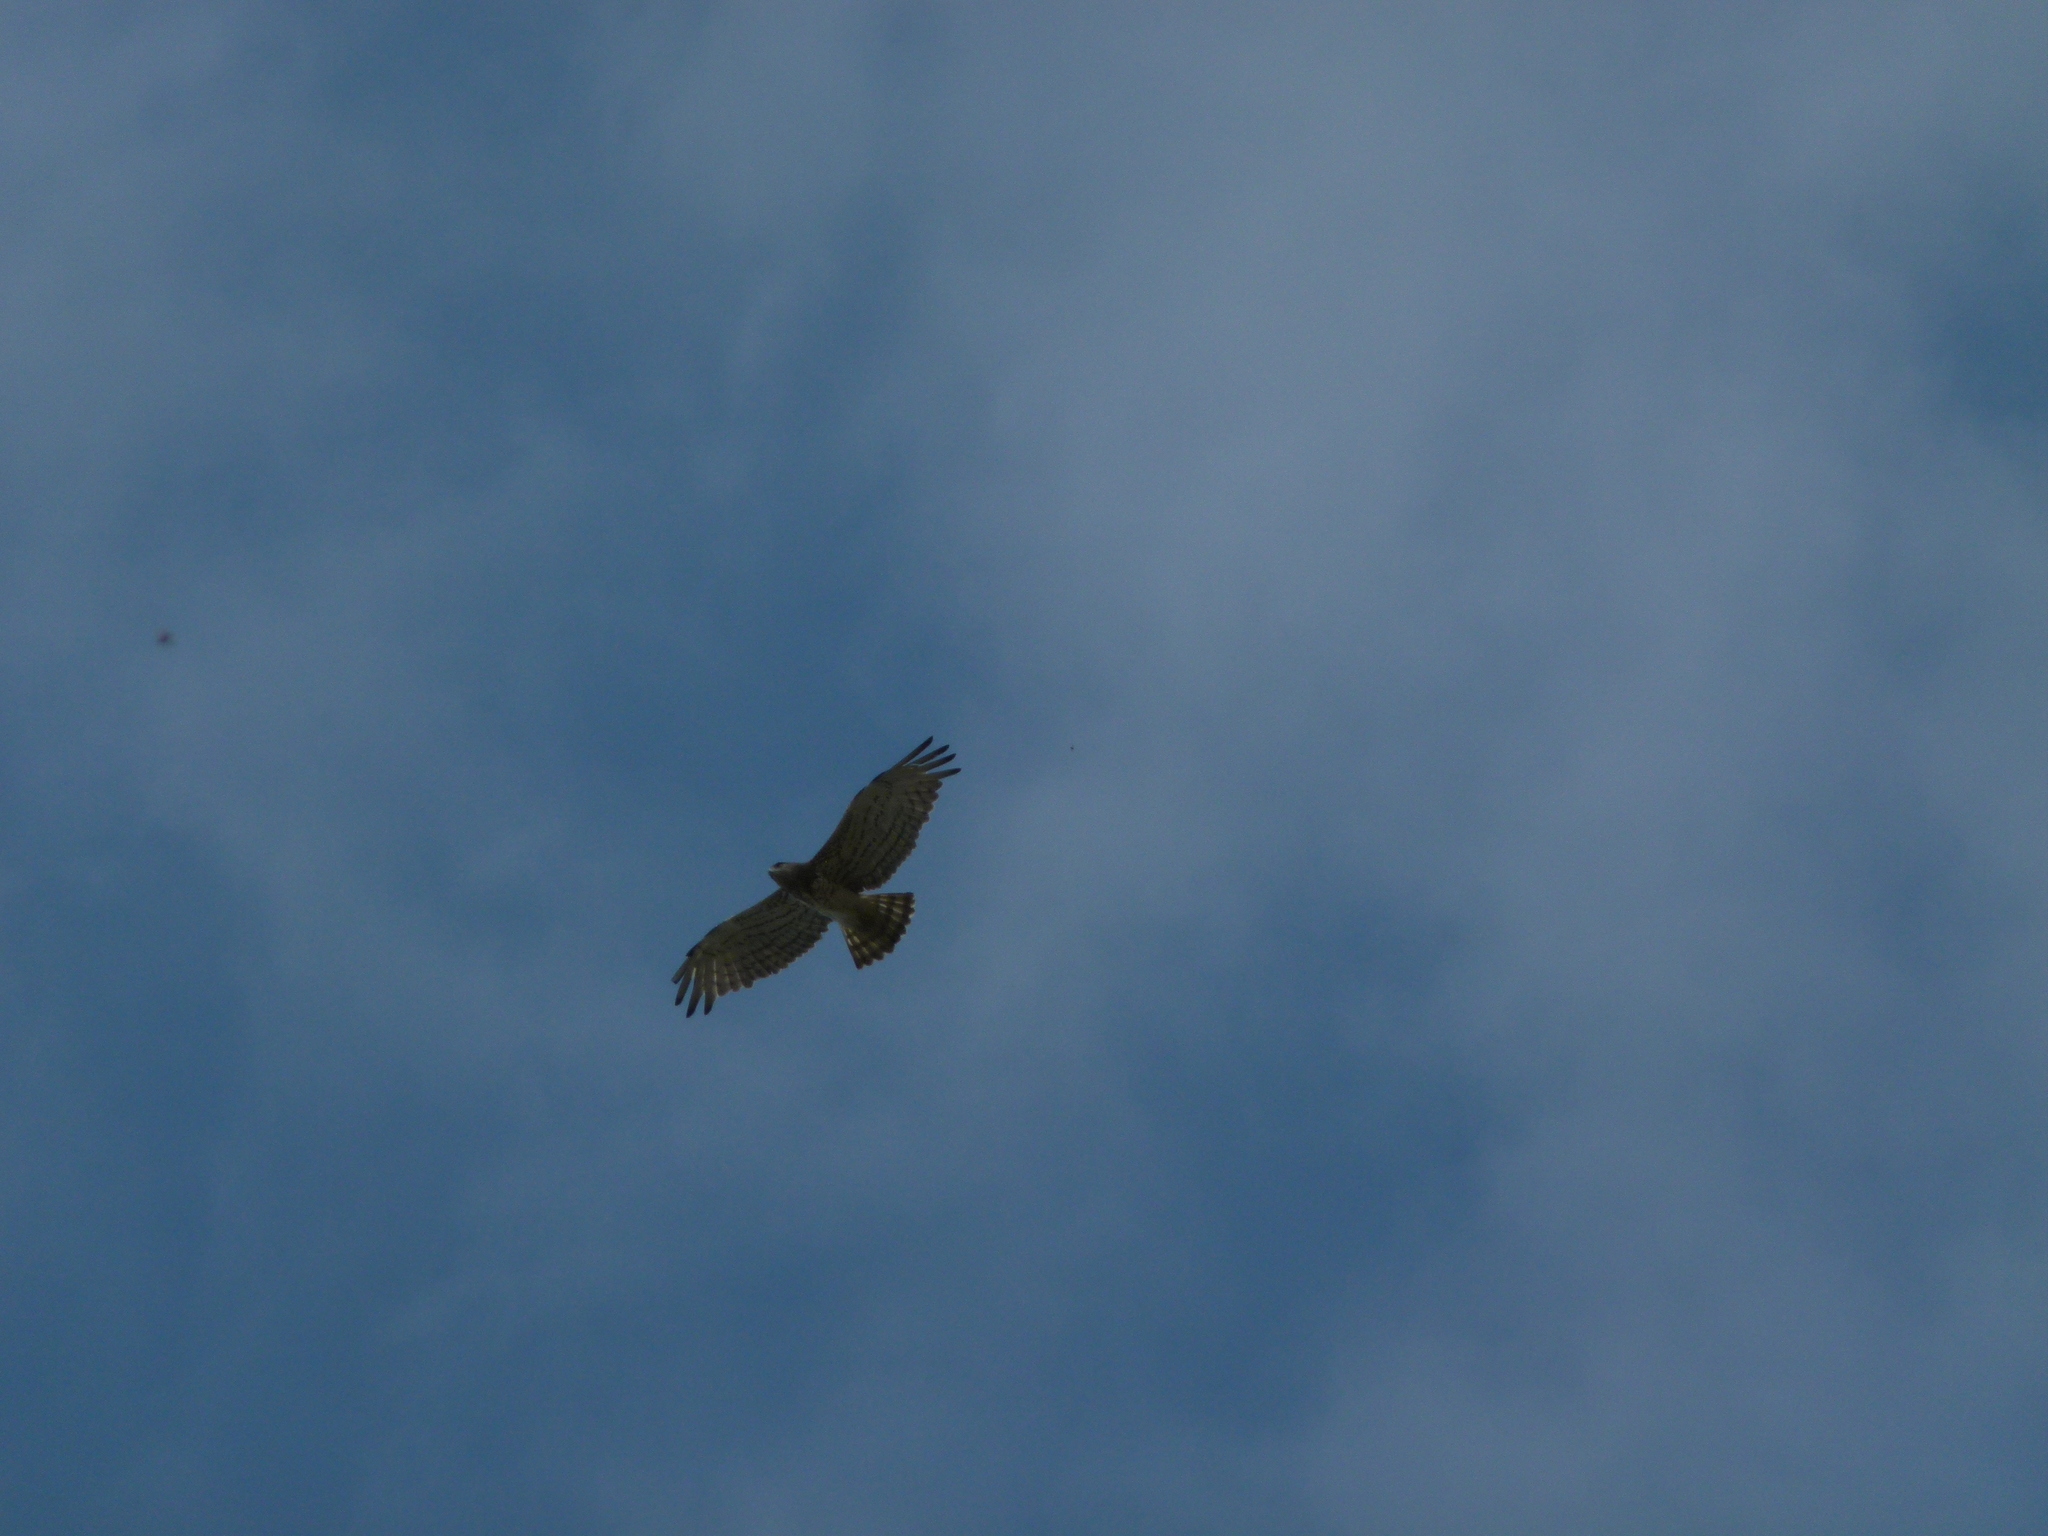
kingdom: Animalia
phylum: Chordata
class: Aves
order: Accipitriformes
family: Accipitridae
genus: Circaetus
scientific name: Circaetus gallicus
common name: Short-toed snake eagle
